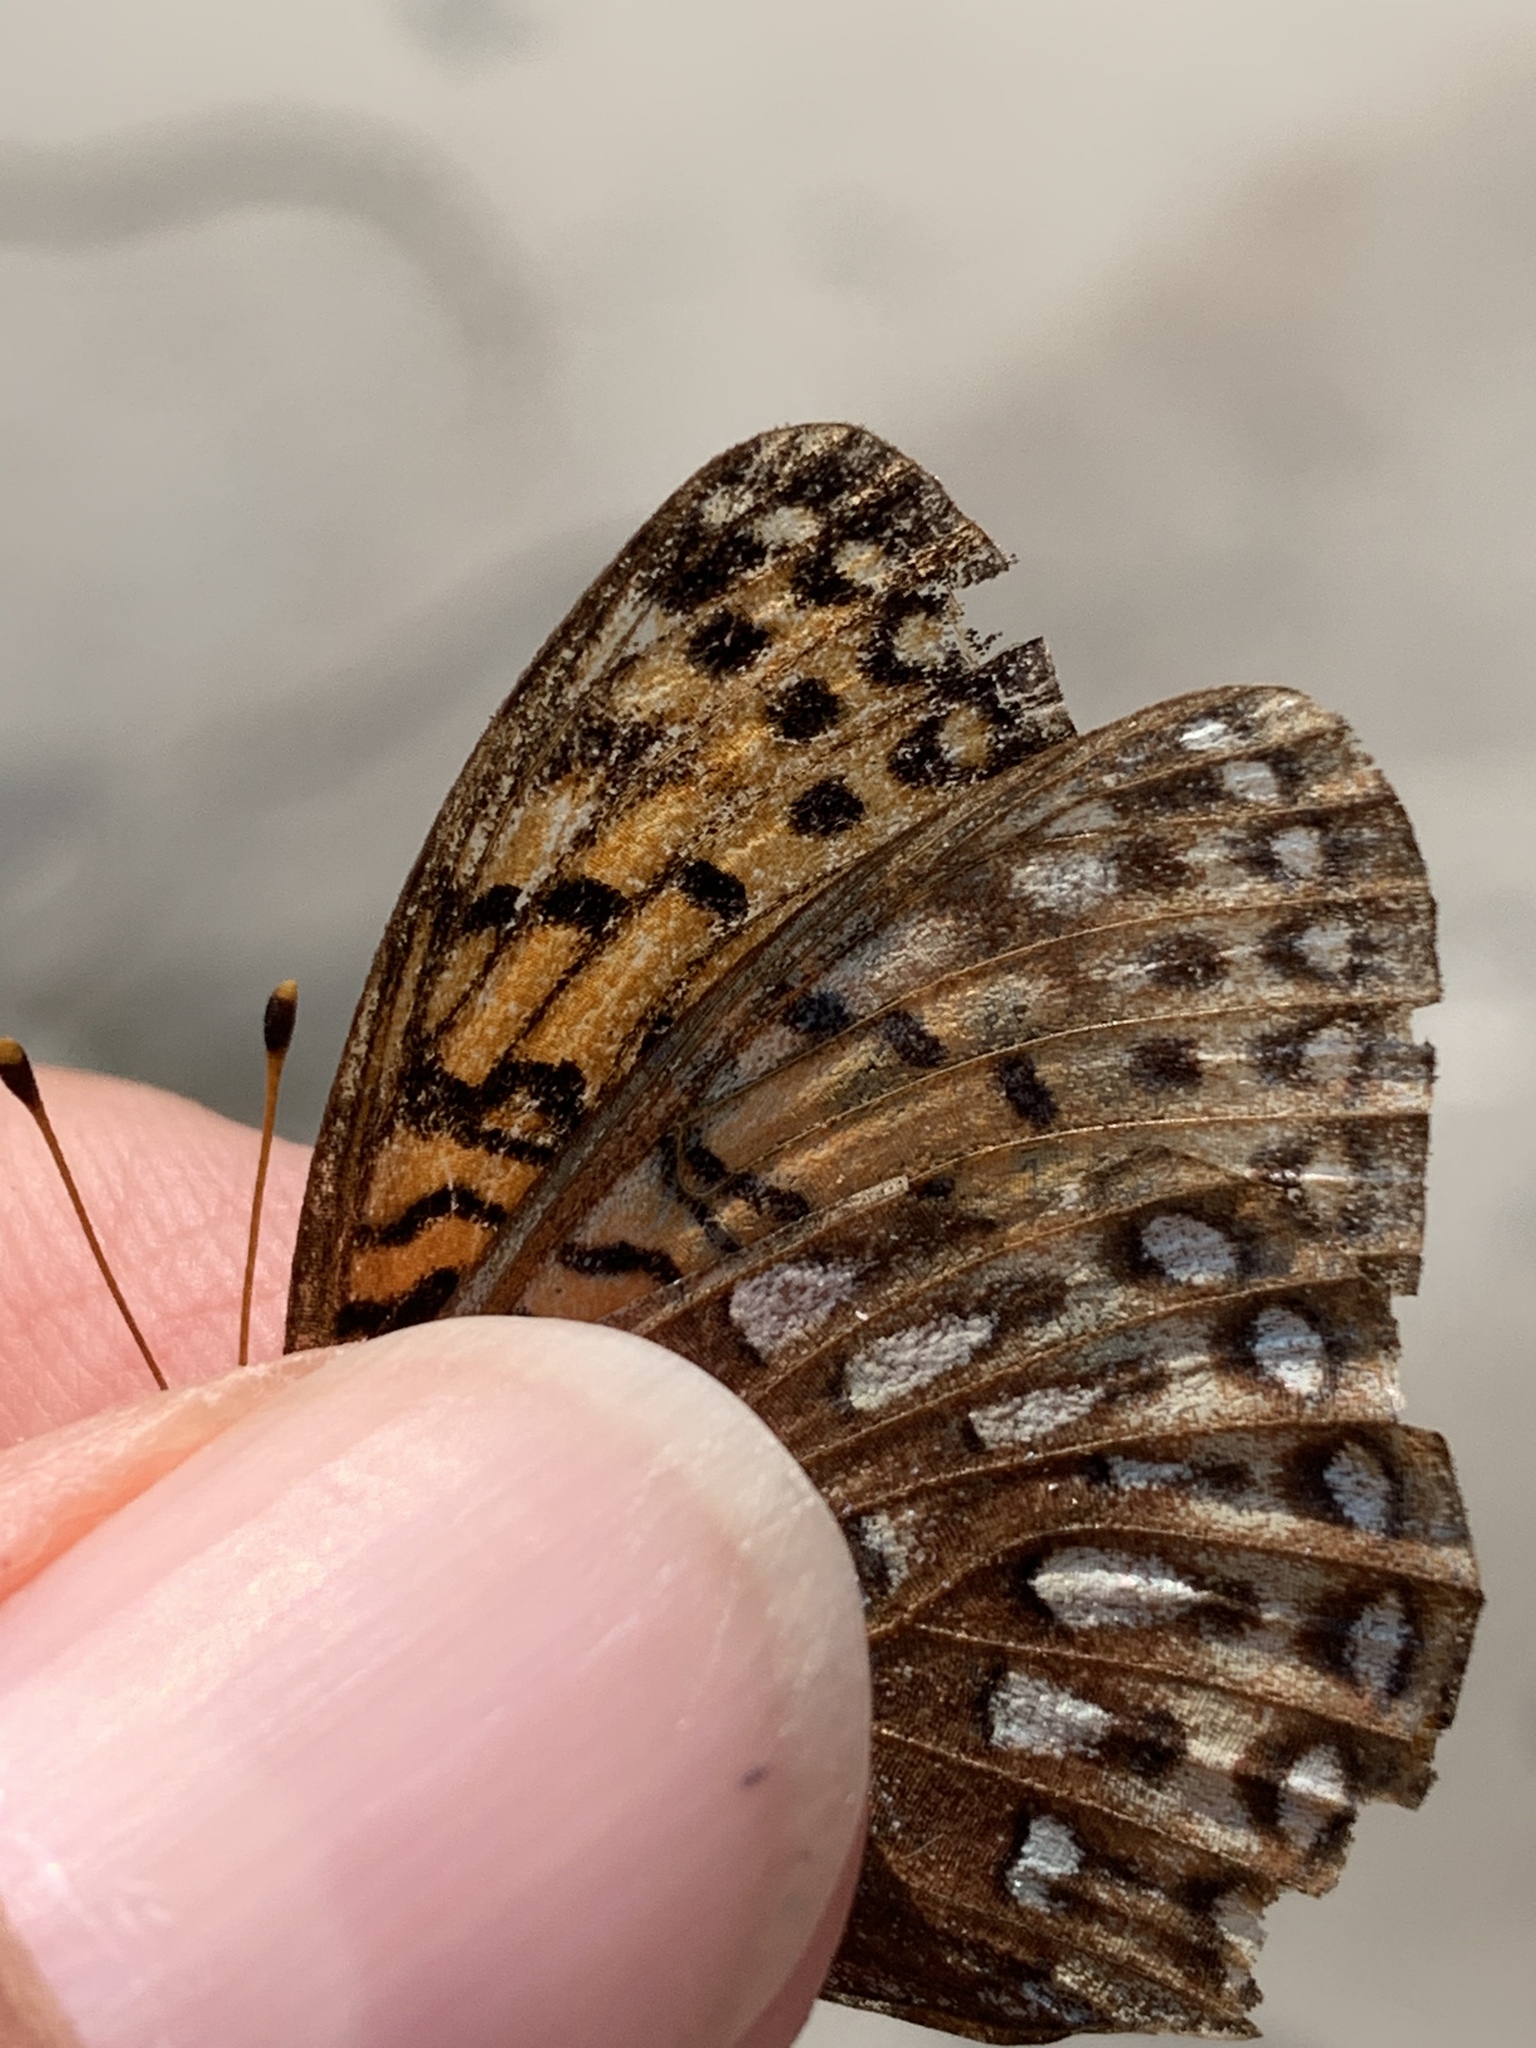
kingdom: Animalia
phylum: Arthropoda
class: Insecta
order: Lepidoptera
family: Nymphalidae
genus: Speyeria
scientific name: Speyeria atlantis
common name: Atlantis fritillary
